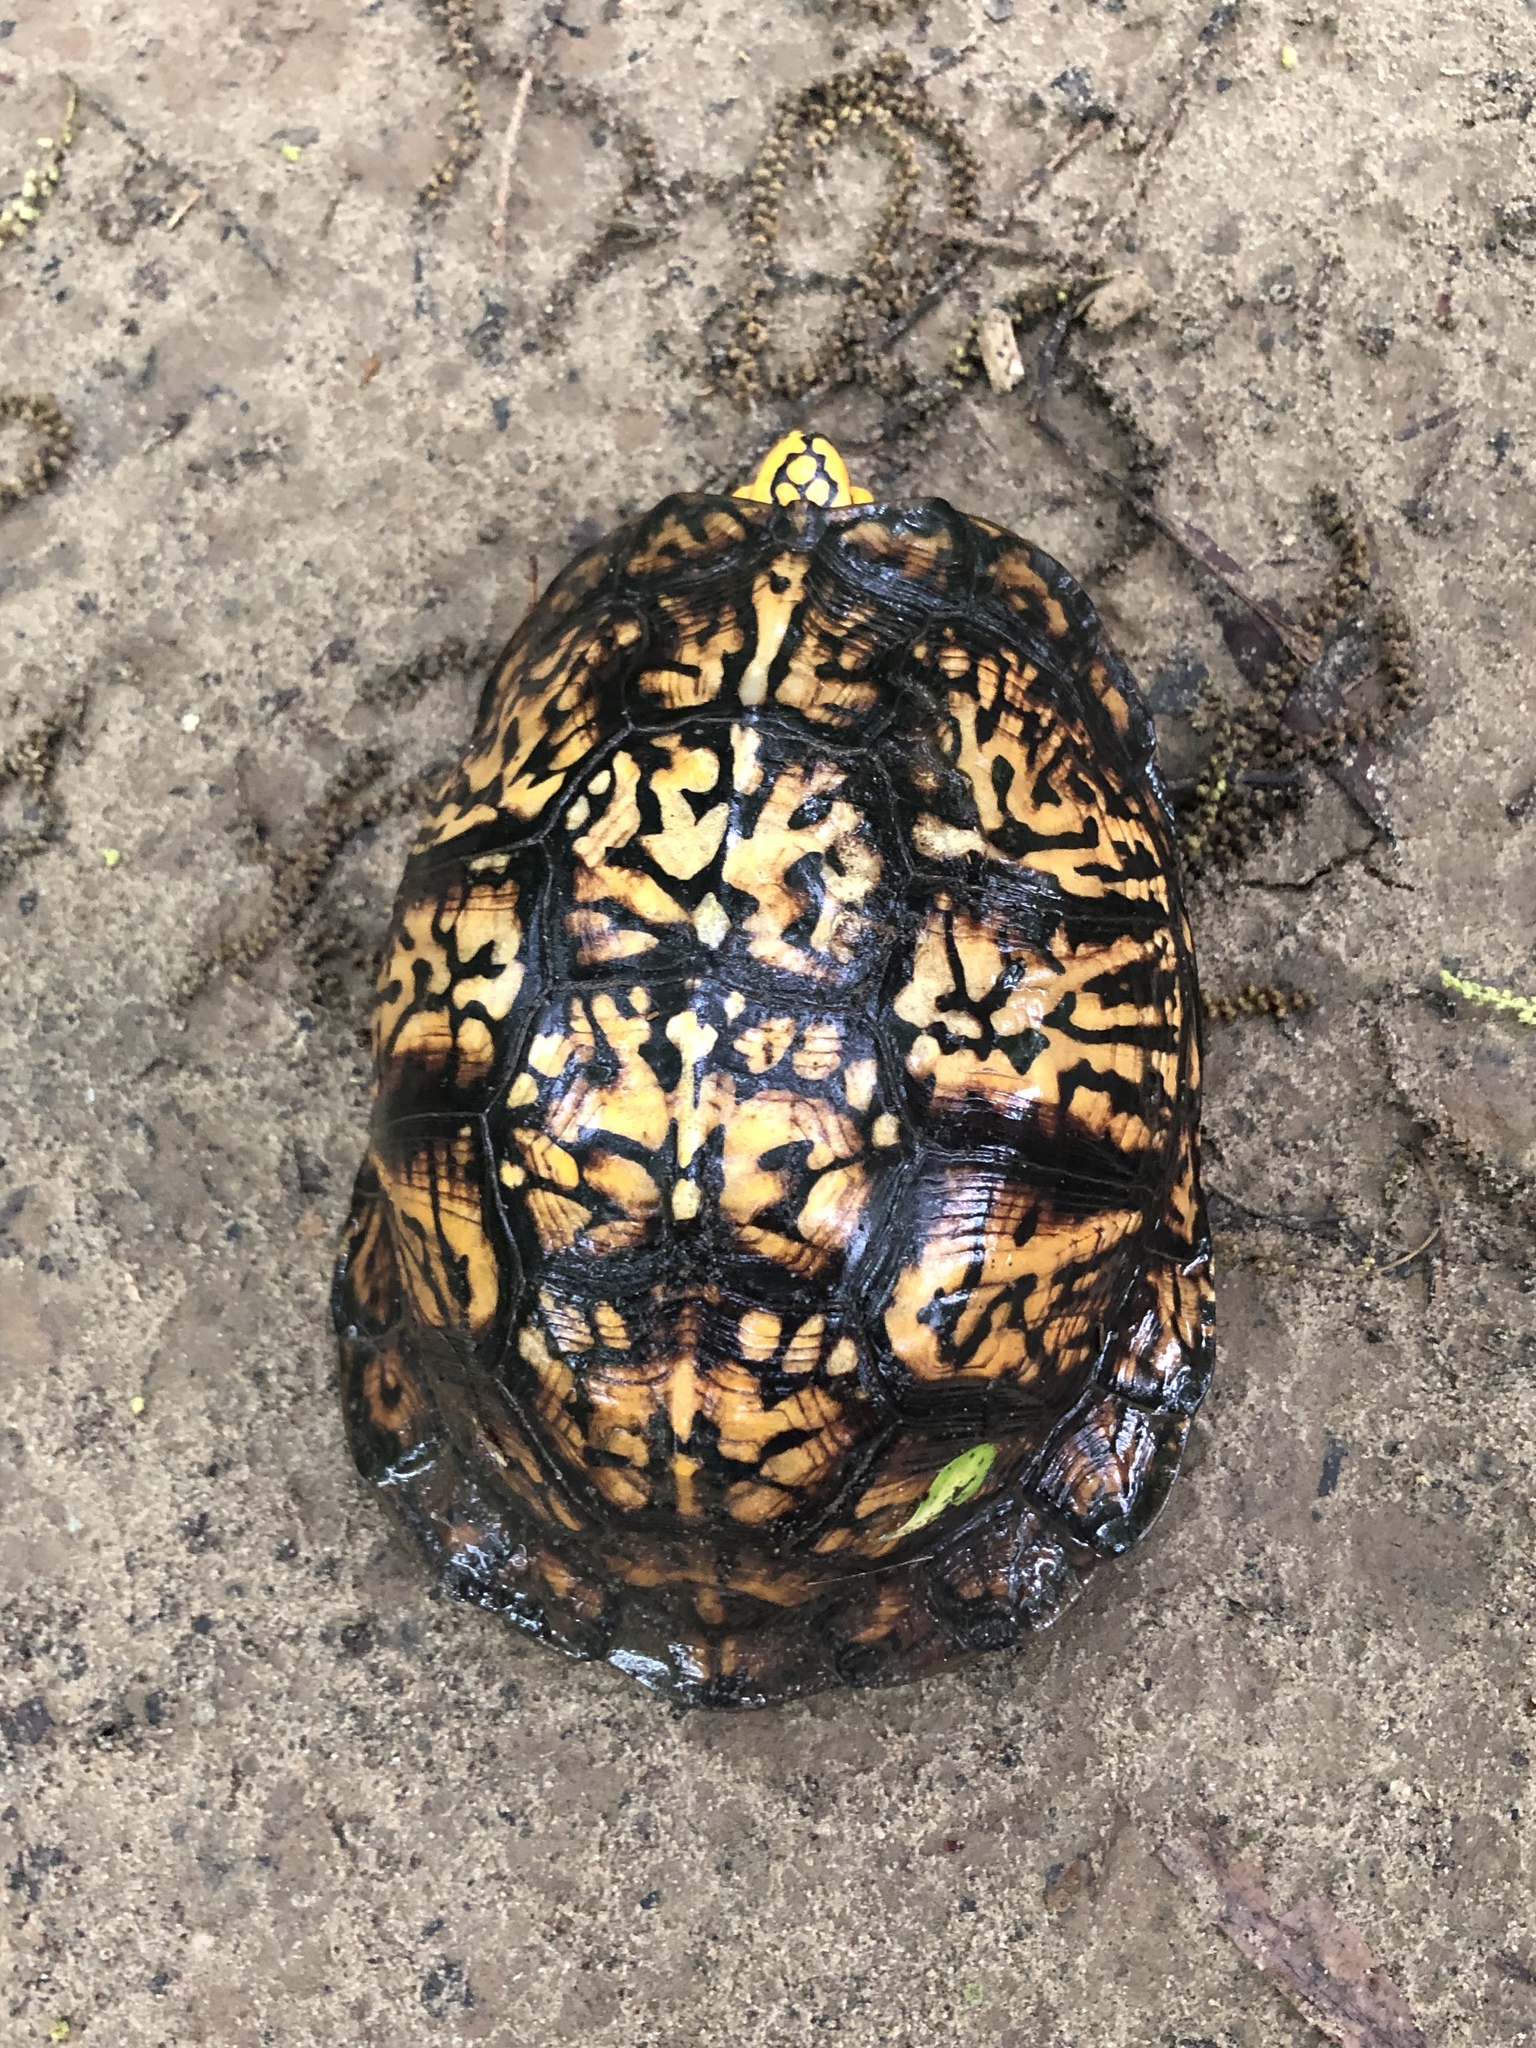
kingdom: Animalia
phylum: Chordata
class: Testudines
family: Emydidae
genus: Terrapene
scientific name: Terrapene carolina
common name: Common box turtle
